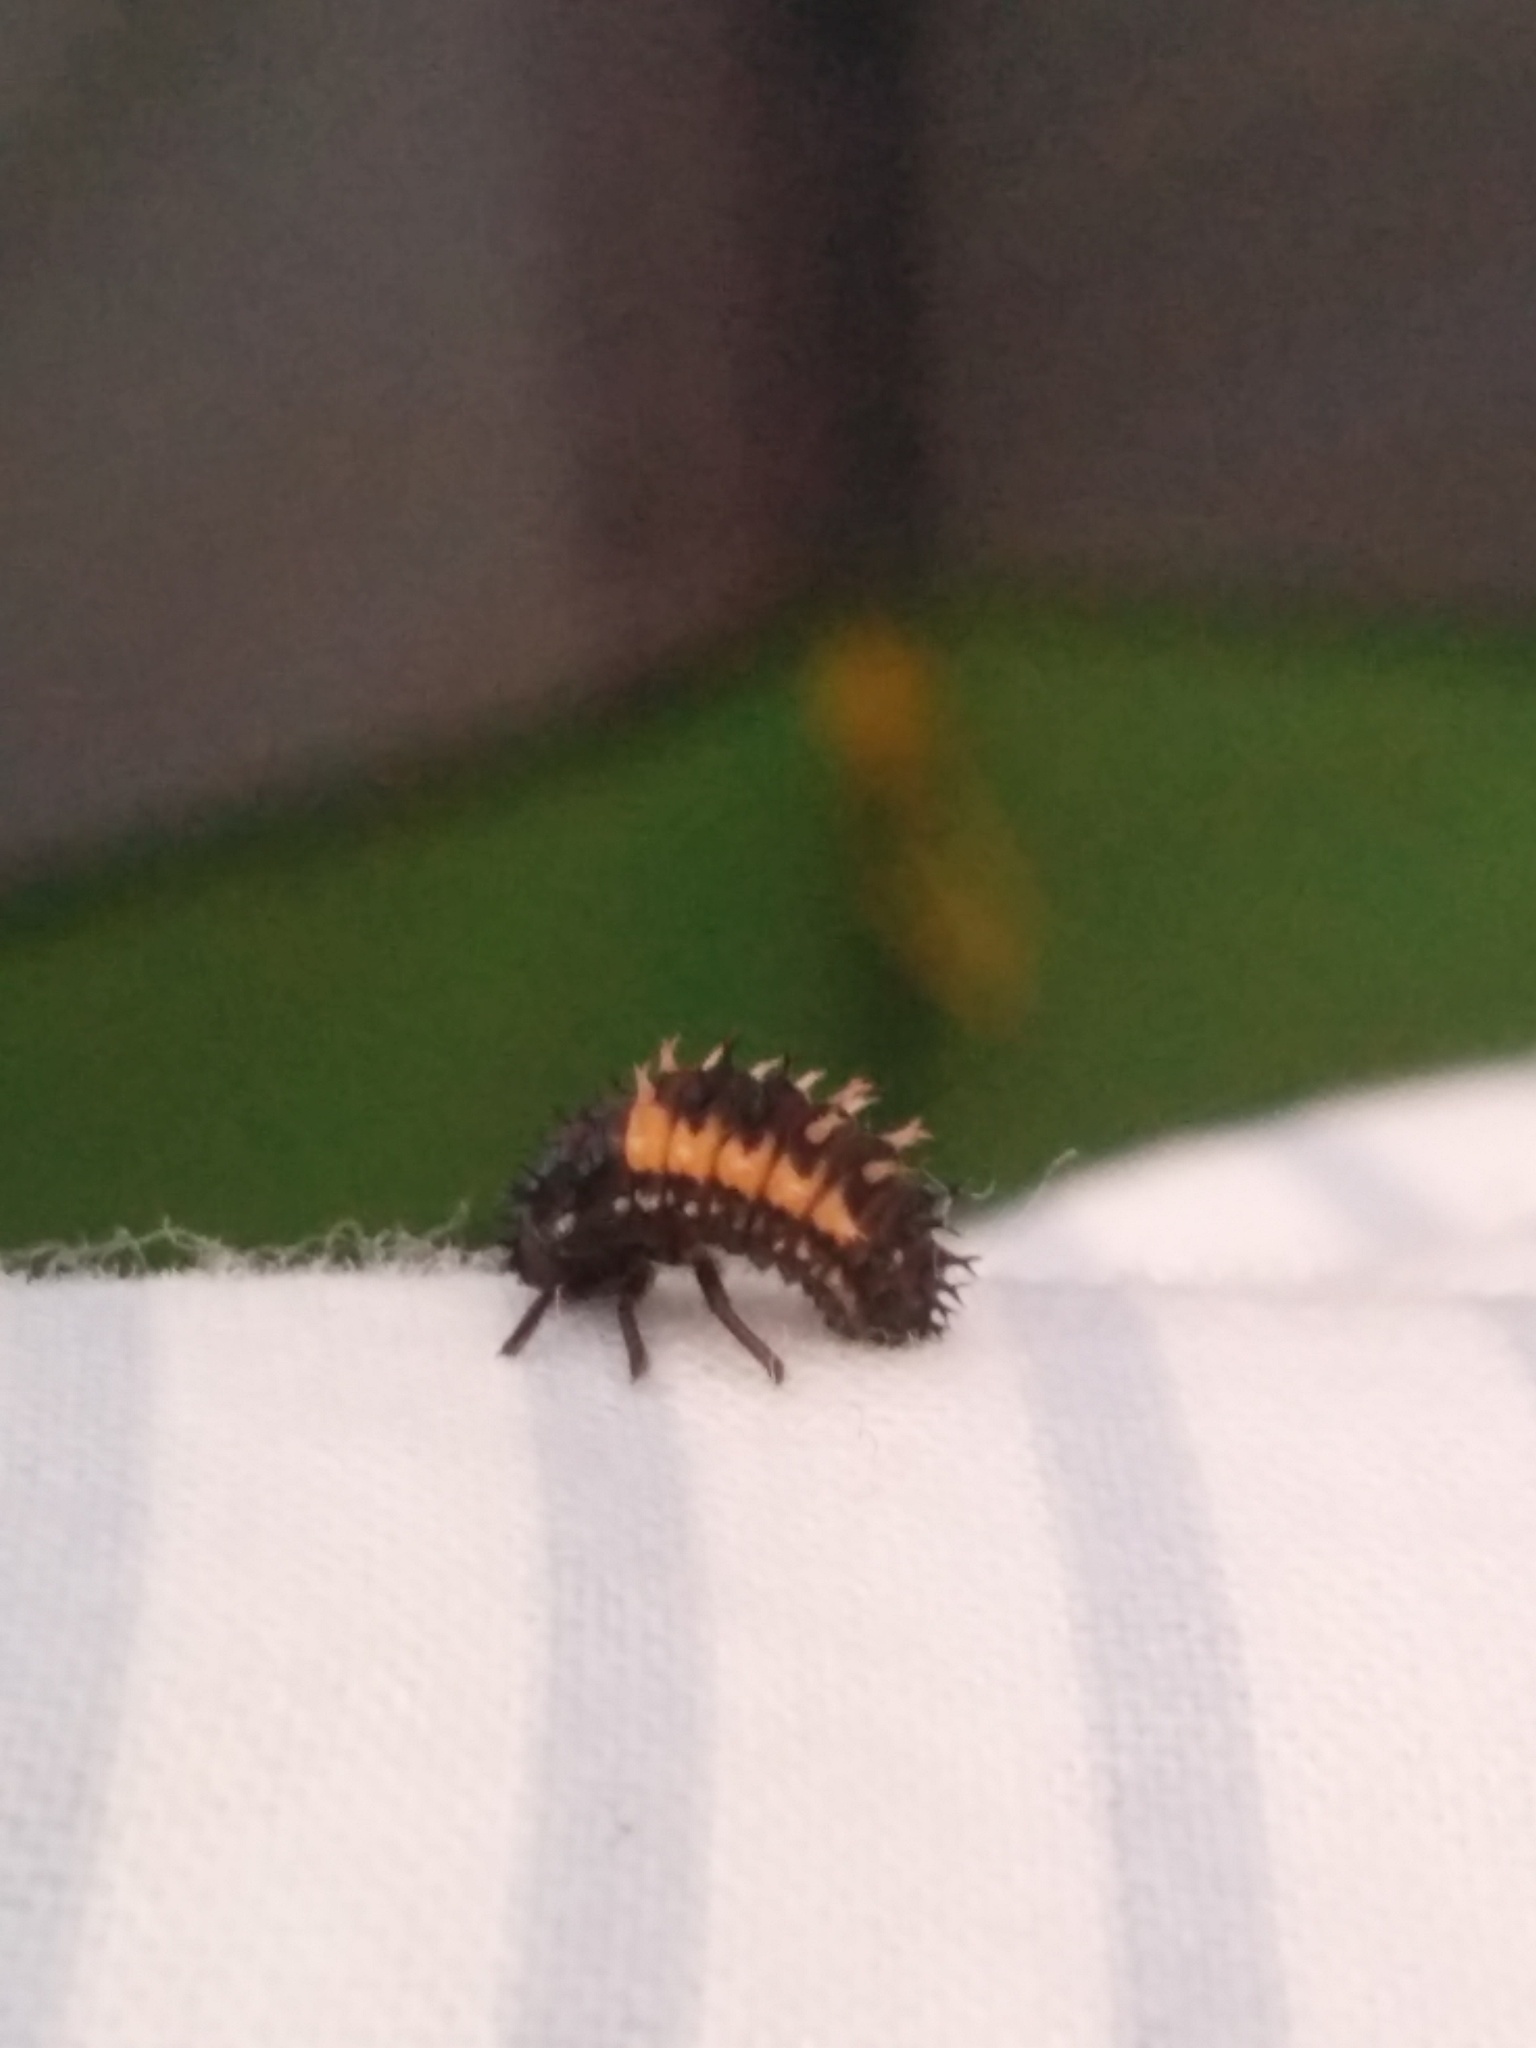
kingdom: Animalia
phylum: Arthropoda
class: Insecta
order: Coleoptera
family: Coccinellidae
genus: Harmonia
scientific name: Harmonia axyridis
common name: Harlequin ladybird
